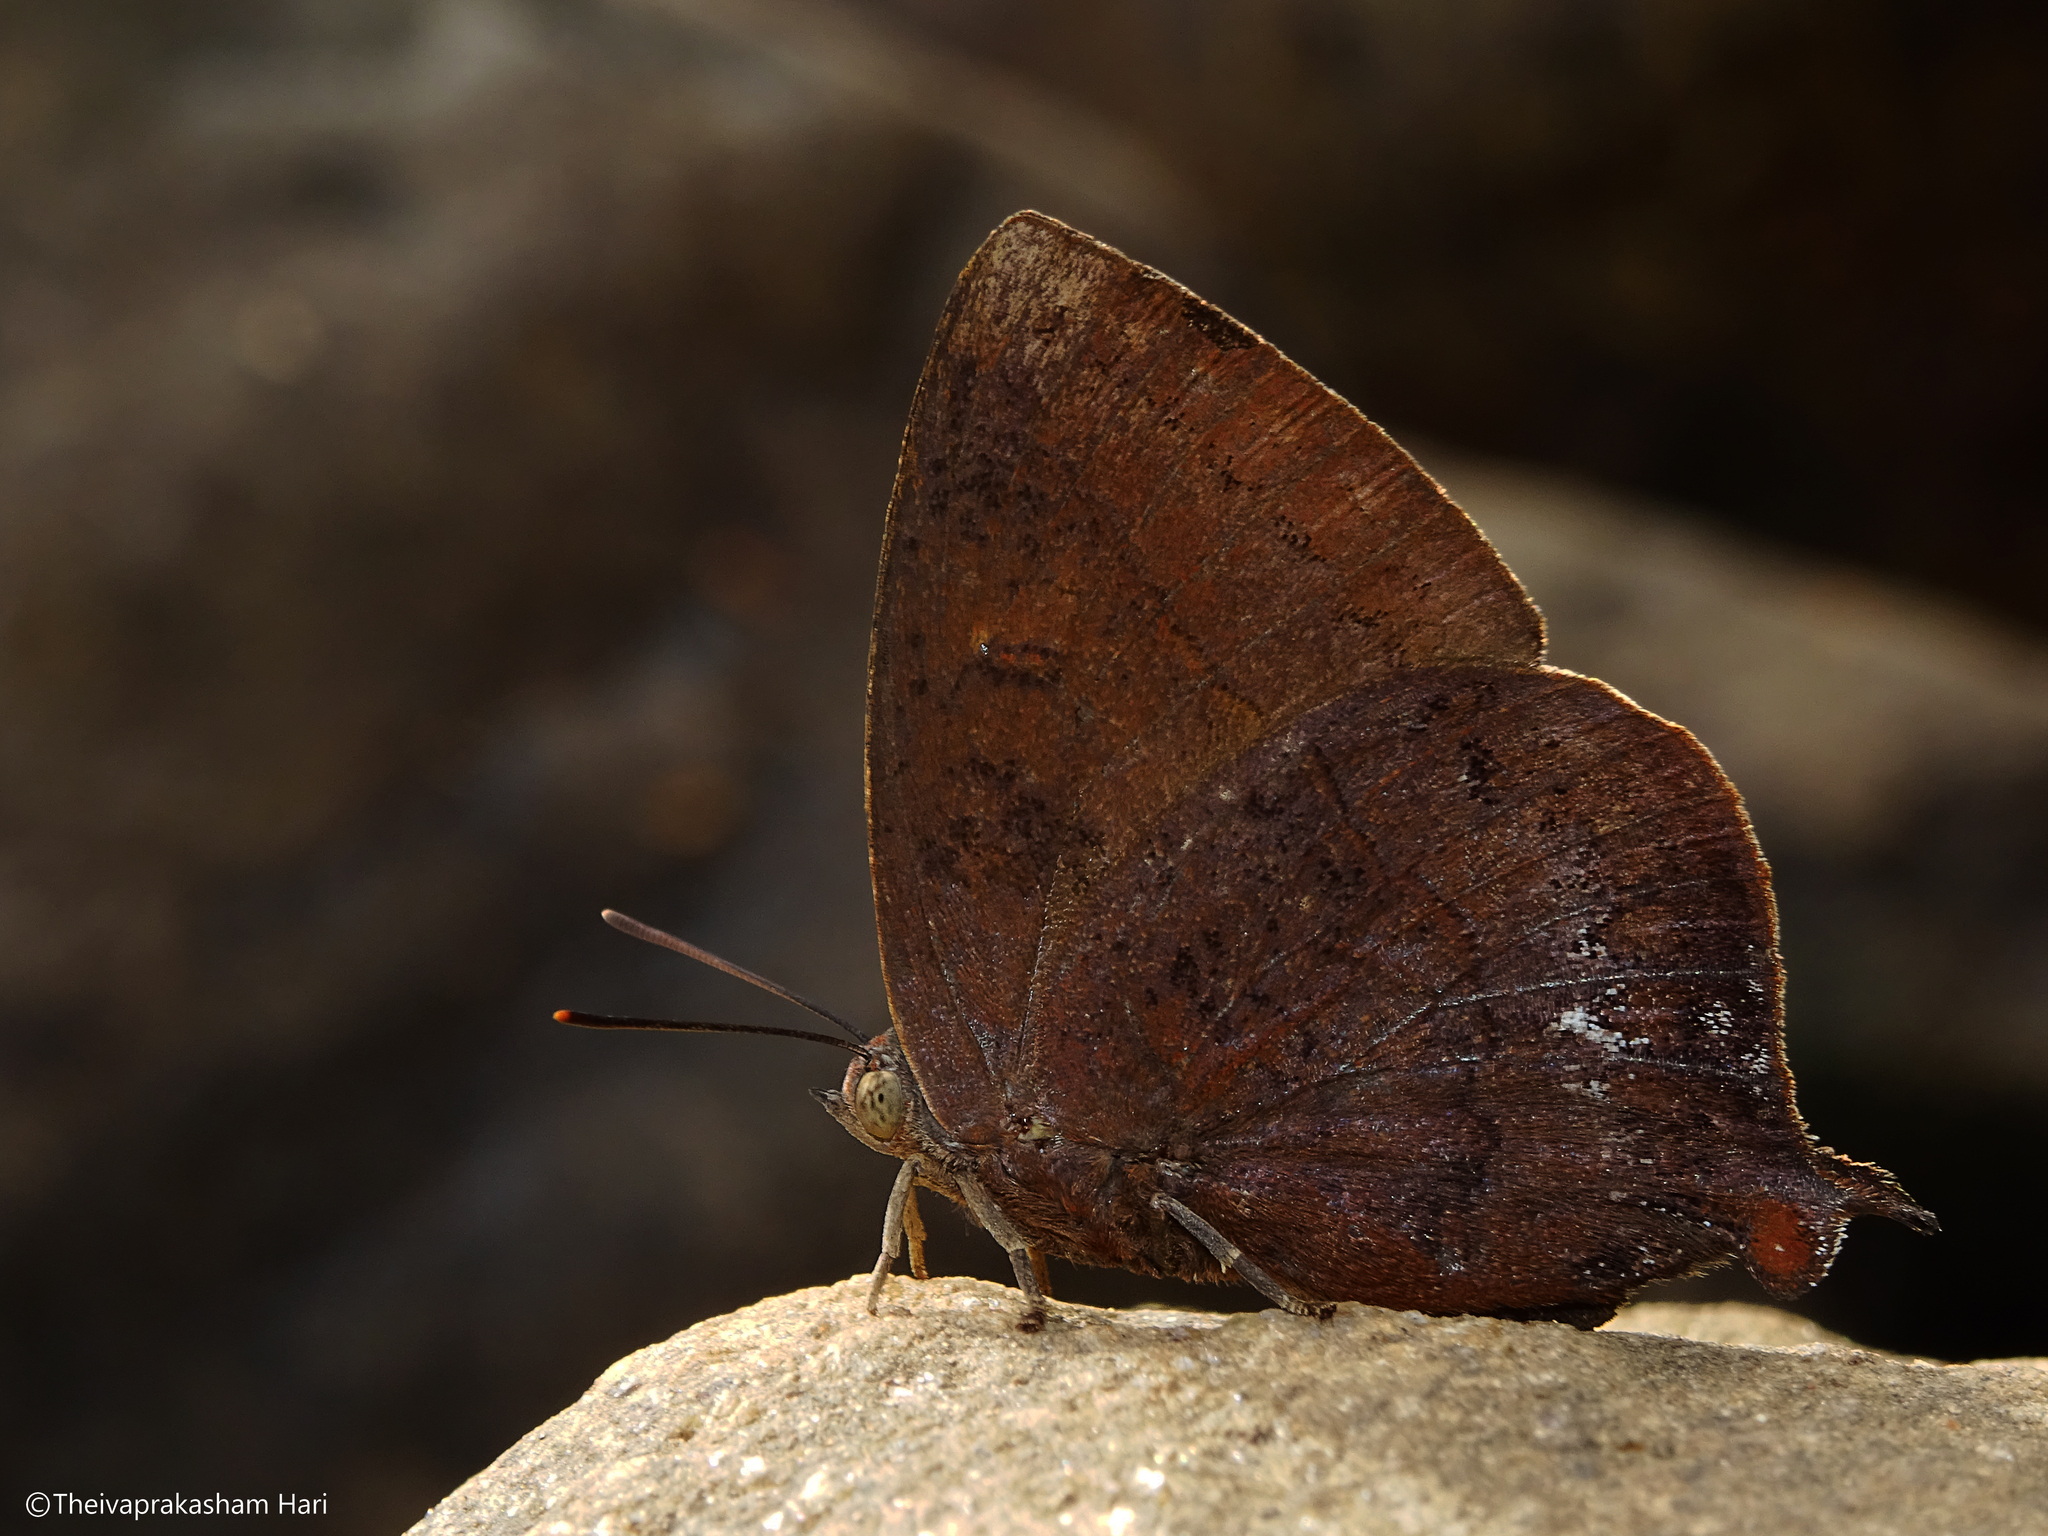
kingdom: Animalia
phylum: Arthropoda
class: Insecta
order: Lepidoptera
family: Lycaenidae
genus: Amblypodia
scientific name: Amblypodia anita
